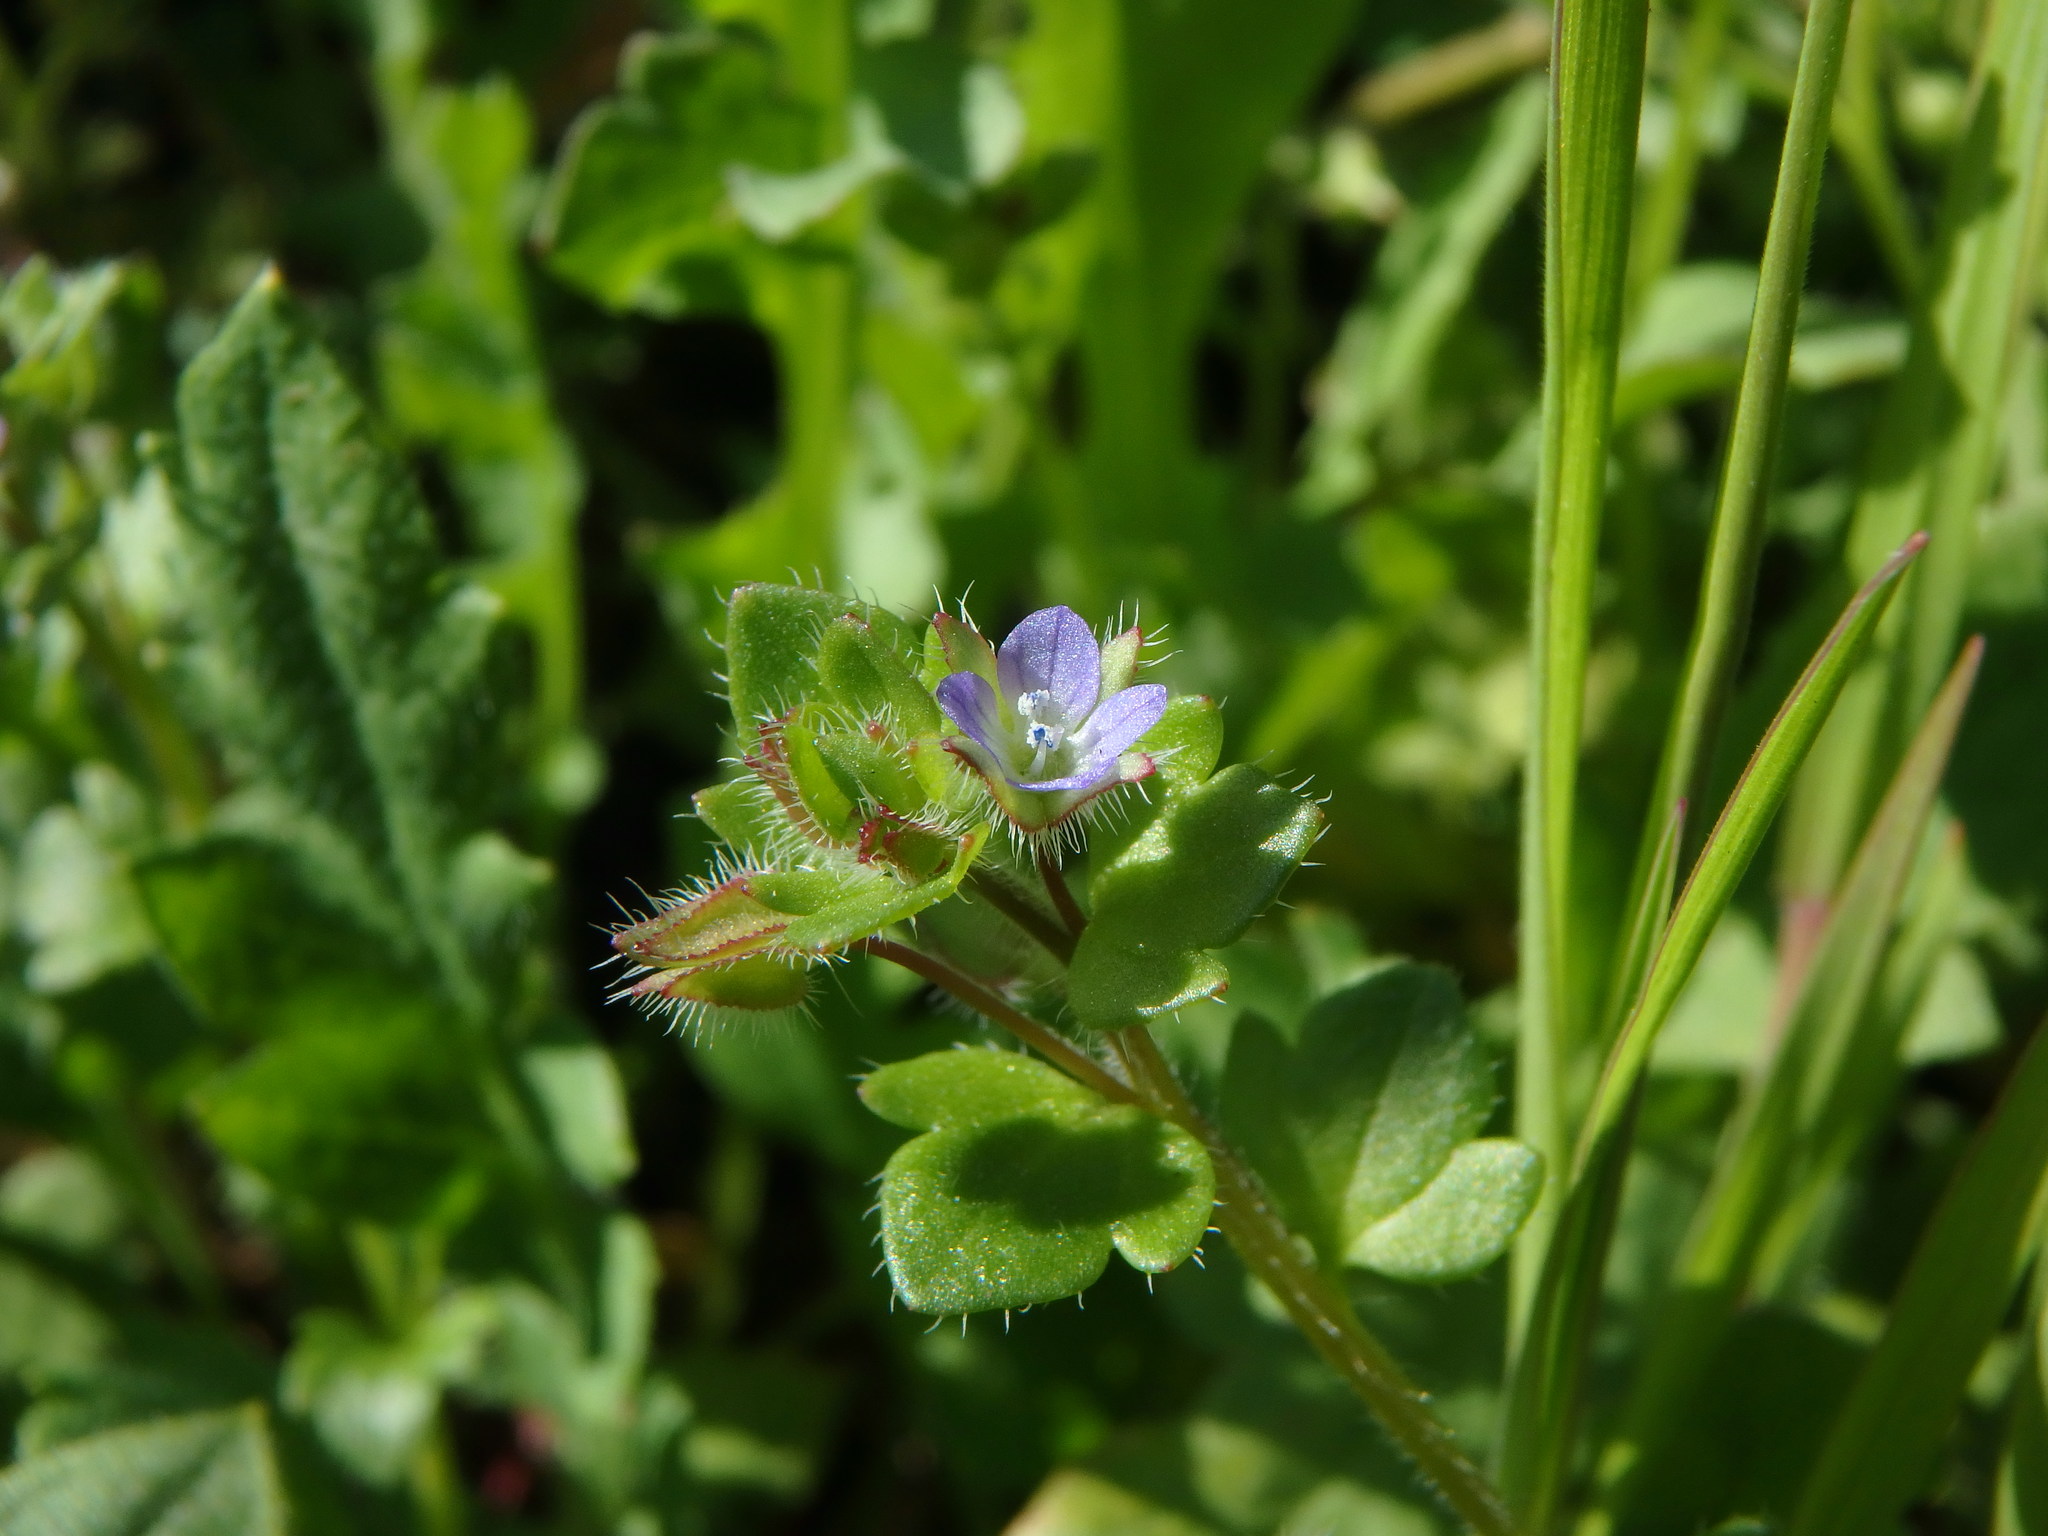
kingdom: Plantae
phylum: Tracheophyta
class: Magnoliopsida
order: Lamiales
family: Plantaginaceae
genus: Veronica
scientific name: Veronica hederifolia
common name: Ivy-leaved speedwell
